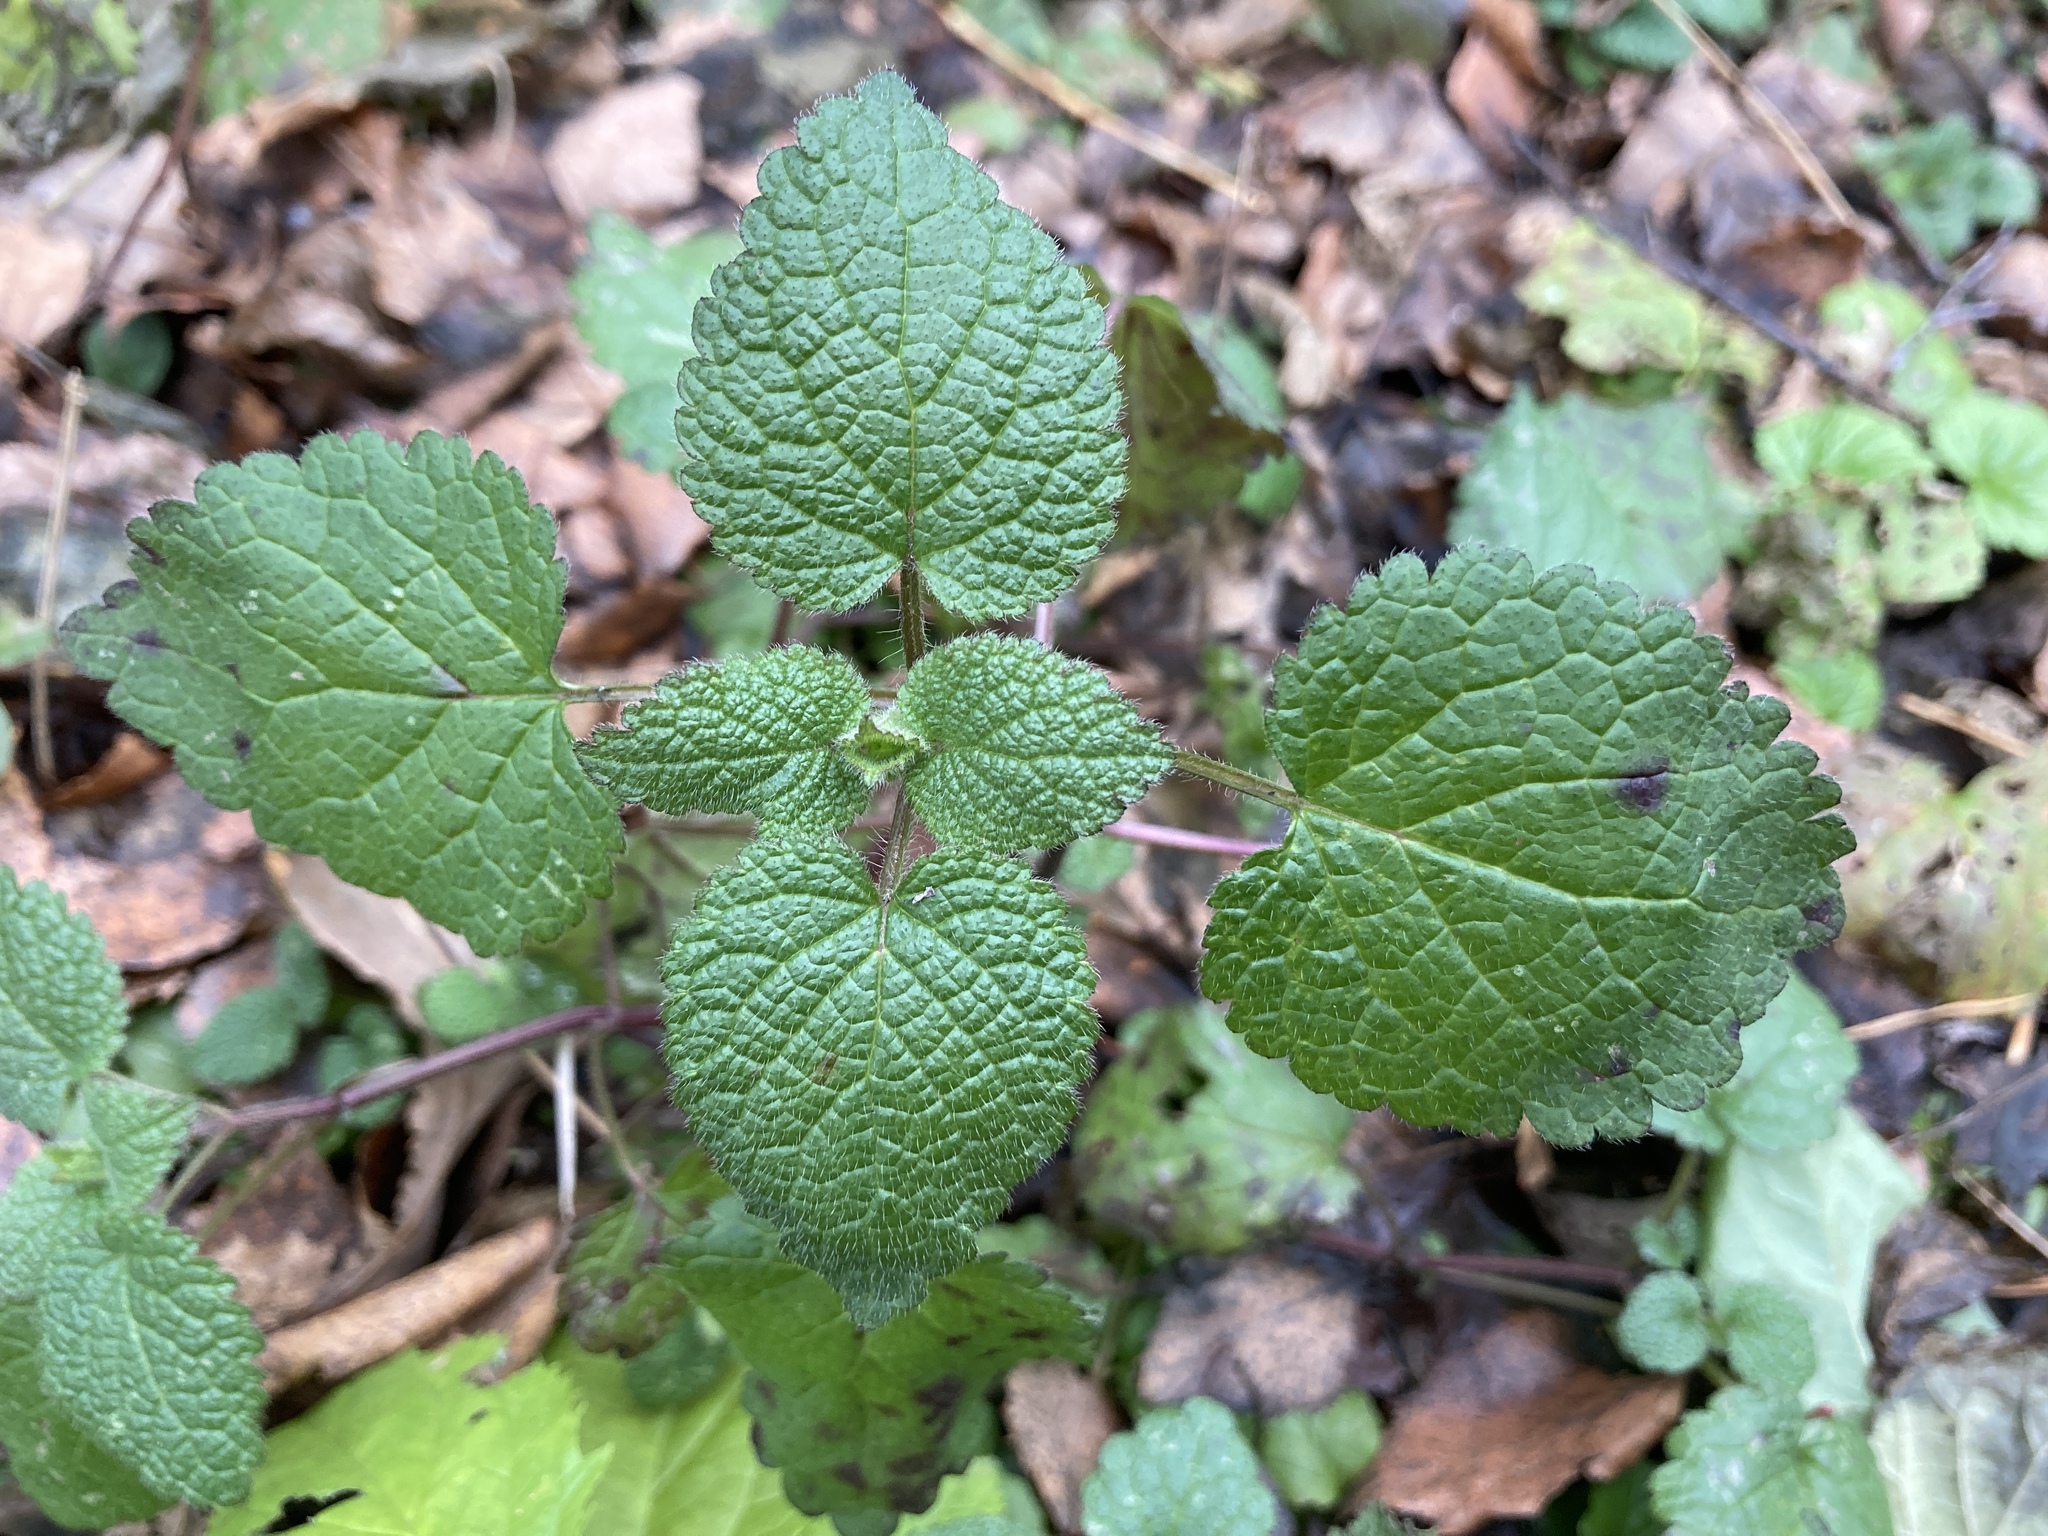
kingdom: Plantae
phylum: Tracheophyta
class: Magnoliopsida
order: Lamiales
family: Lamiaceae
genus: Lamium
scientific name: Lamium galeobdolon
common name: Yellow archangel
